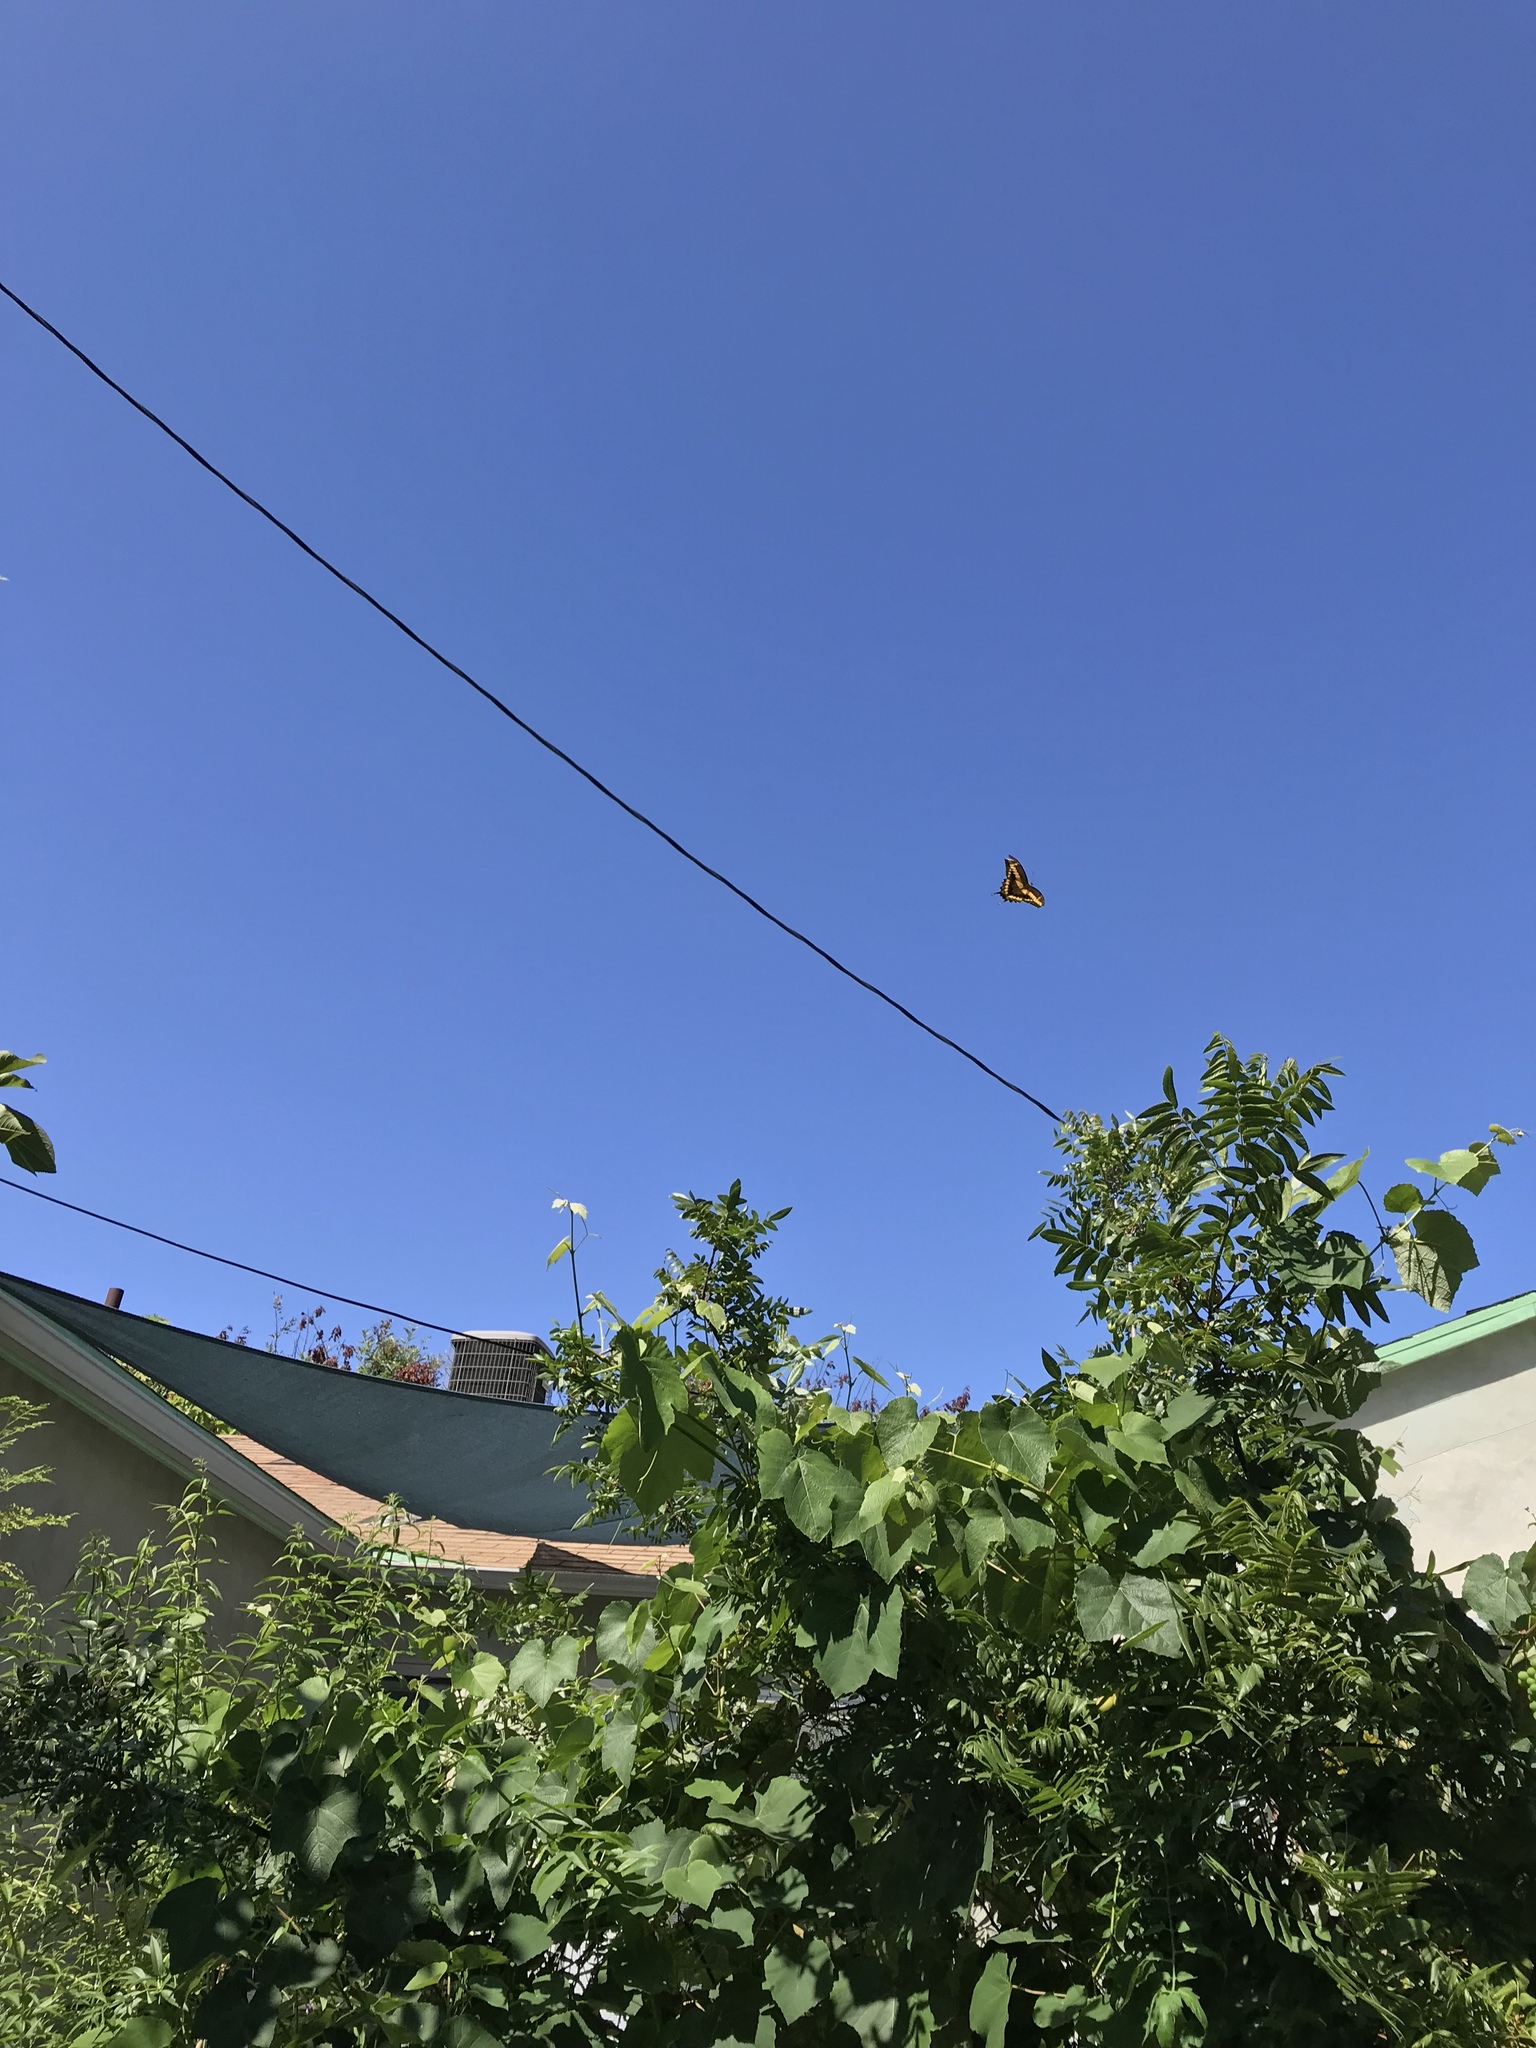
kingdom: Animalia
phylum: Arthropoda
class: Insecta
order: Lepidoptera
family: Papilionidae
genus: Papilio
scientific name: Papilio rumiko
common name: Western giant swallowtail
